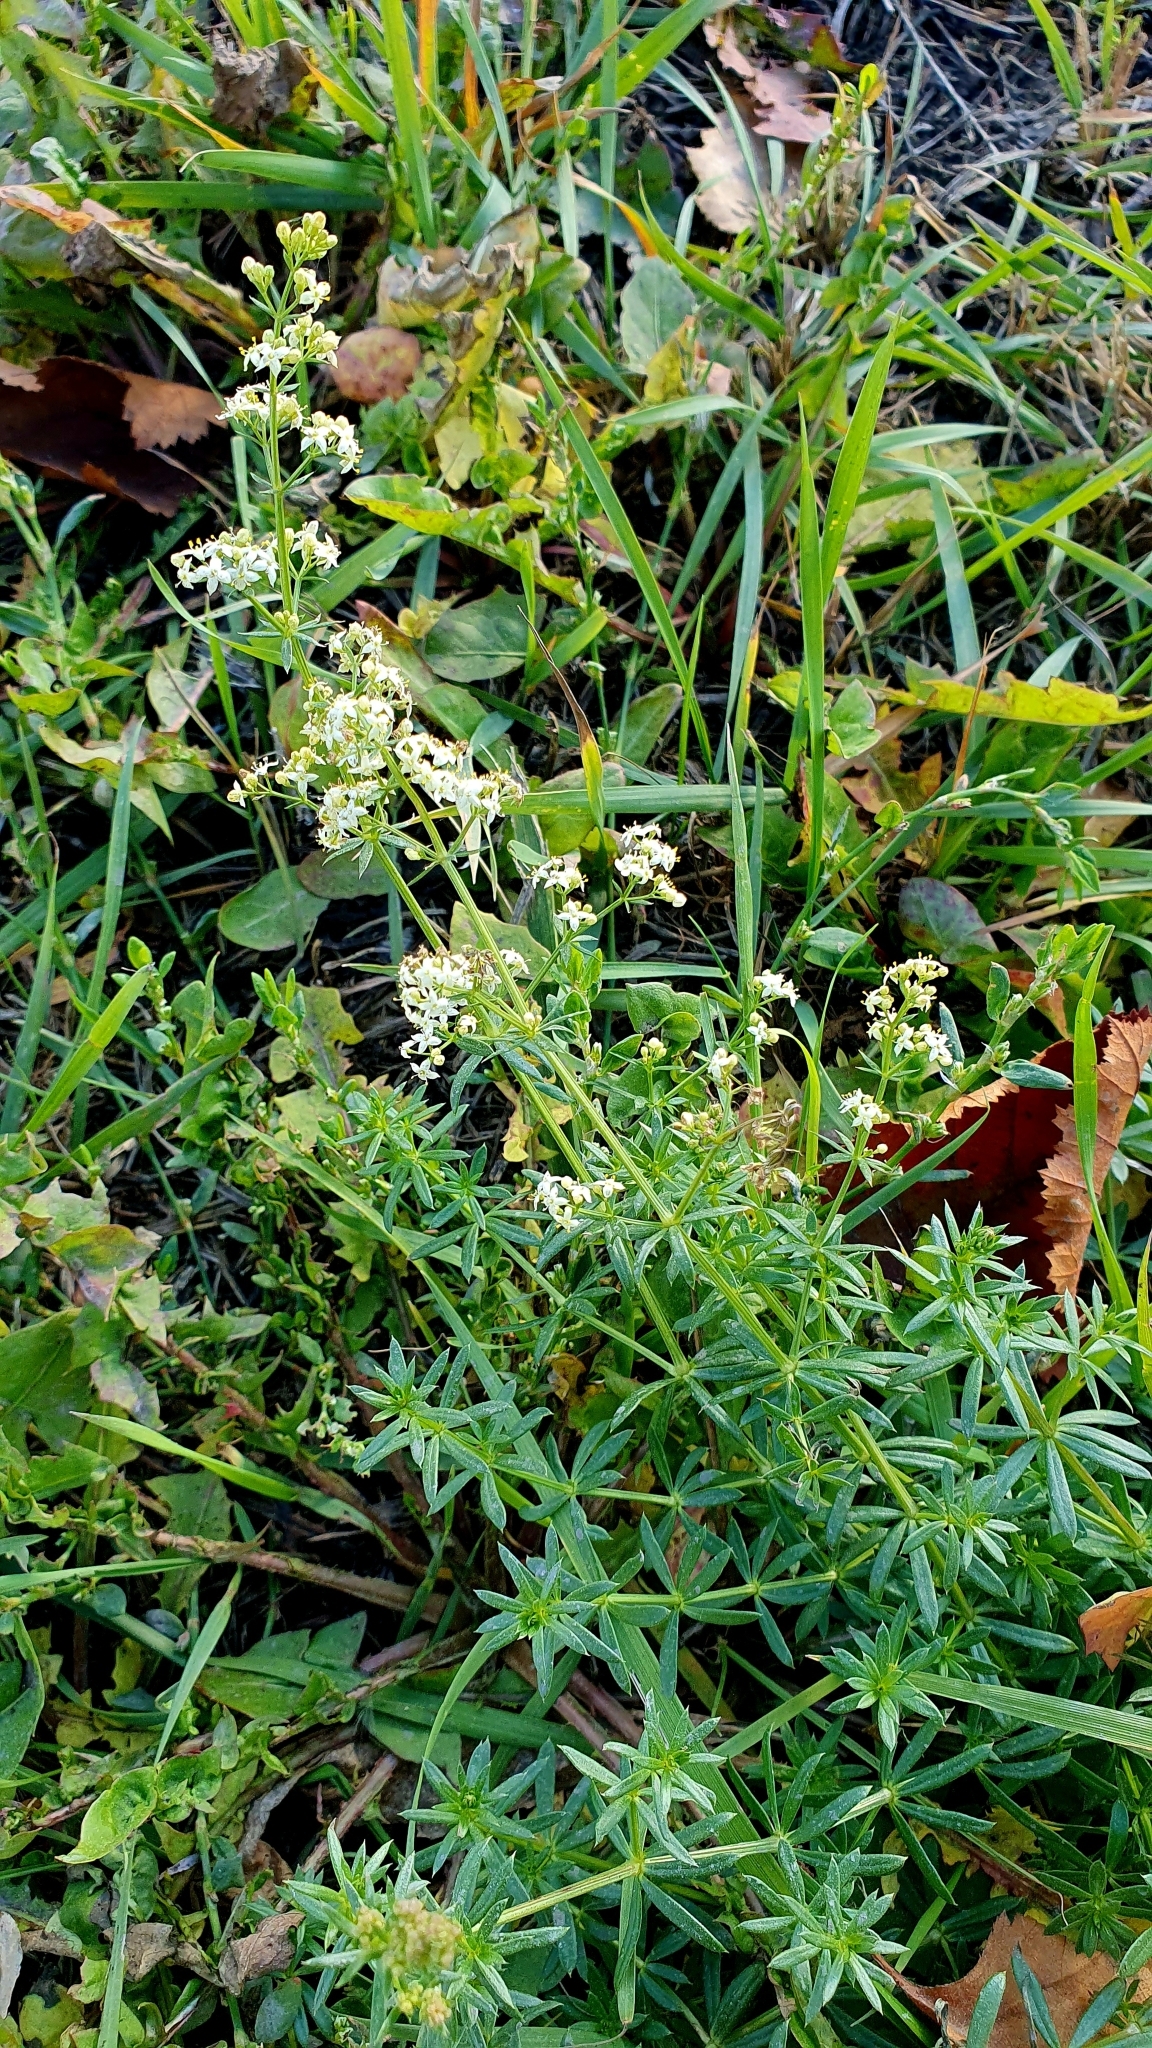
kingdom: Plantae
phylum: Tracheophyta
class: Magnoliopsida
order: Gentianales
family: Rubiaceae
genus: Galium
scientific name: Galium mollugo
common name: Hedge bedstraw
